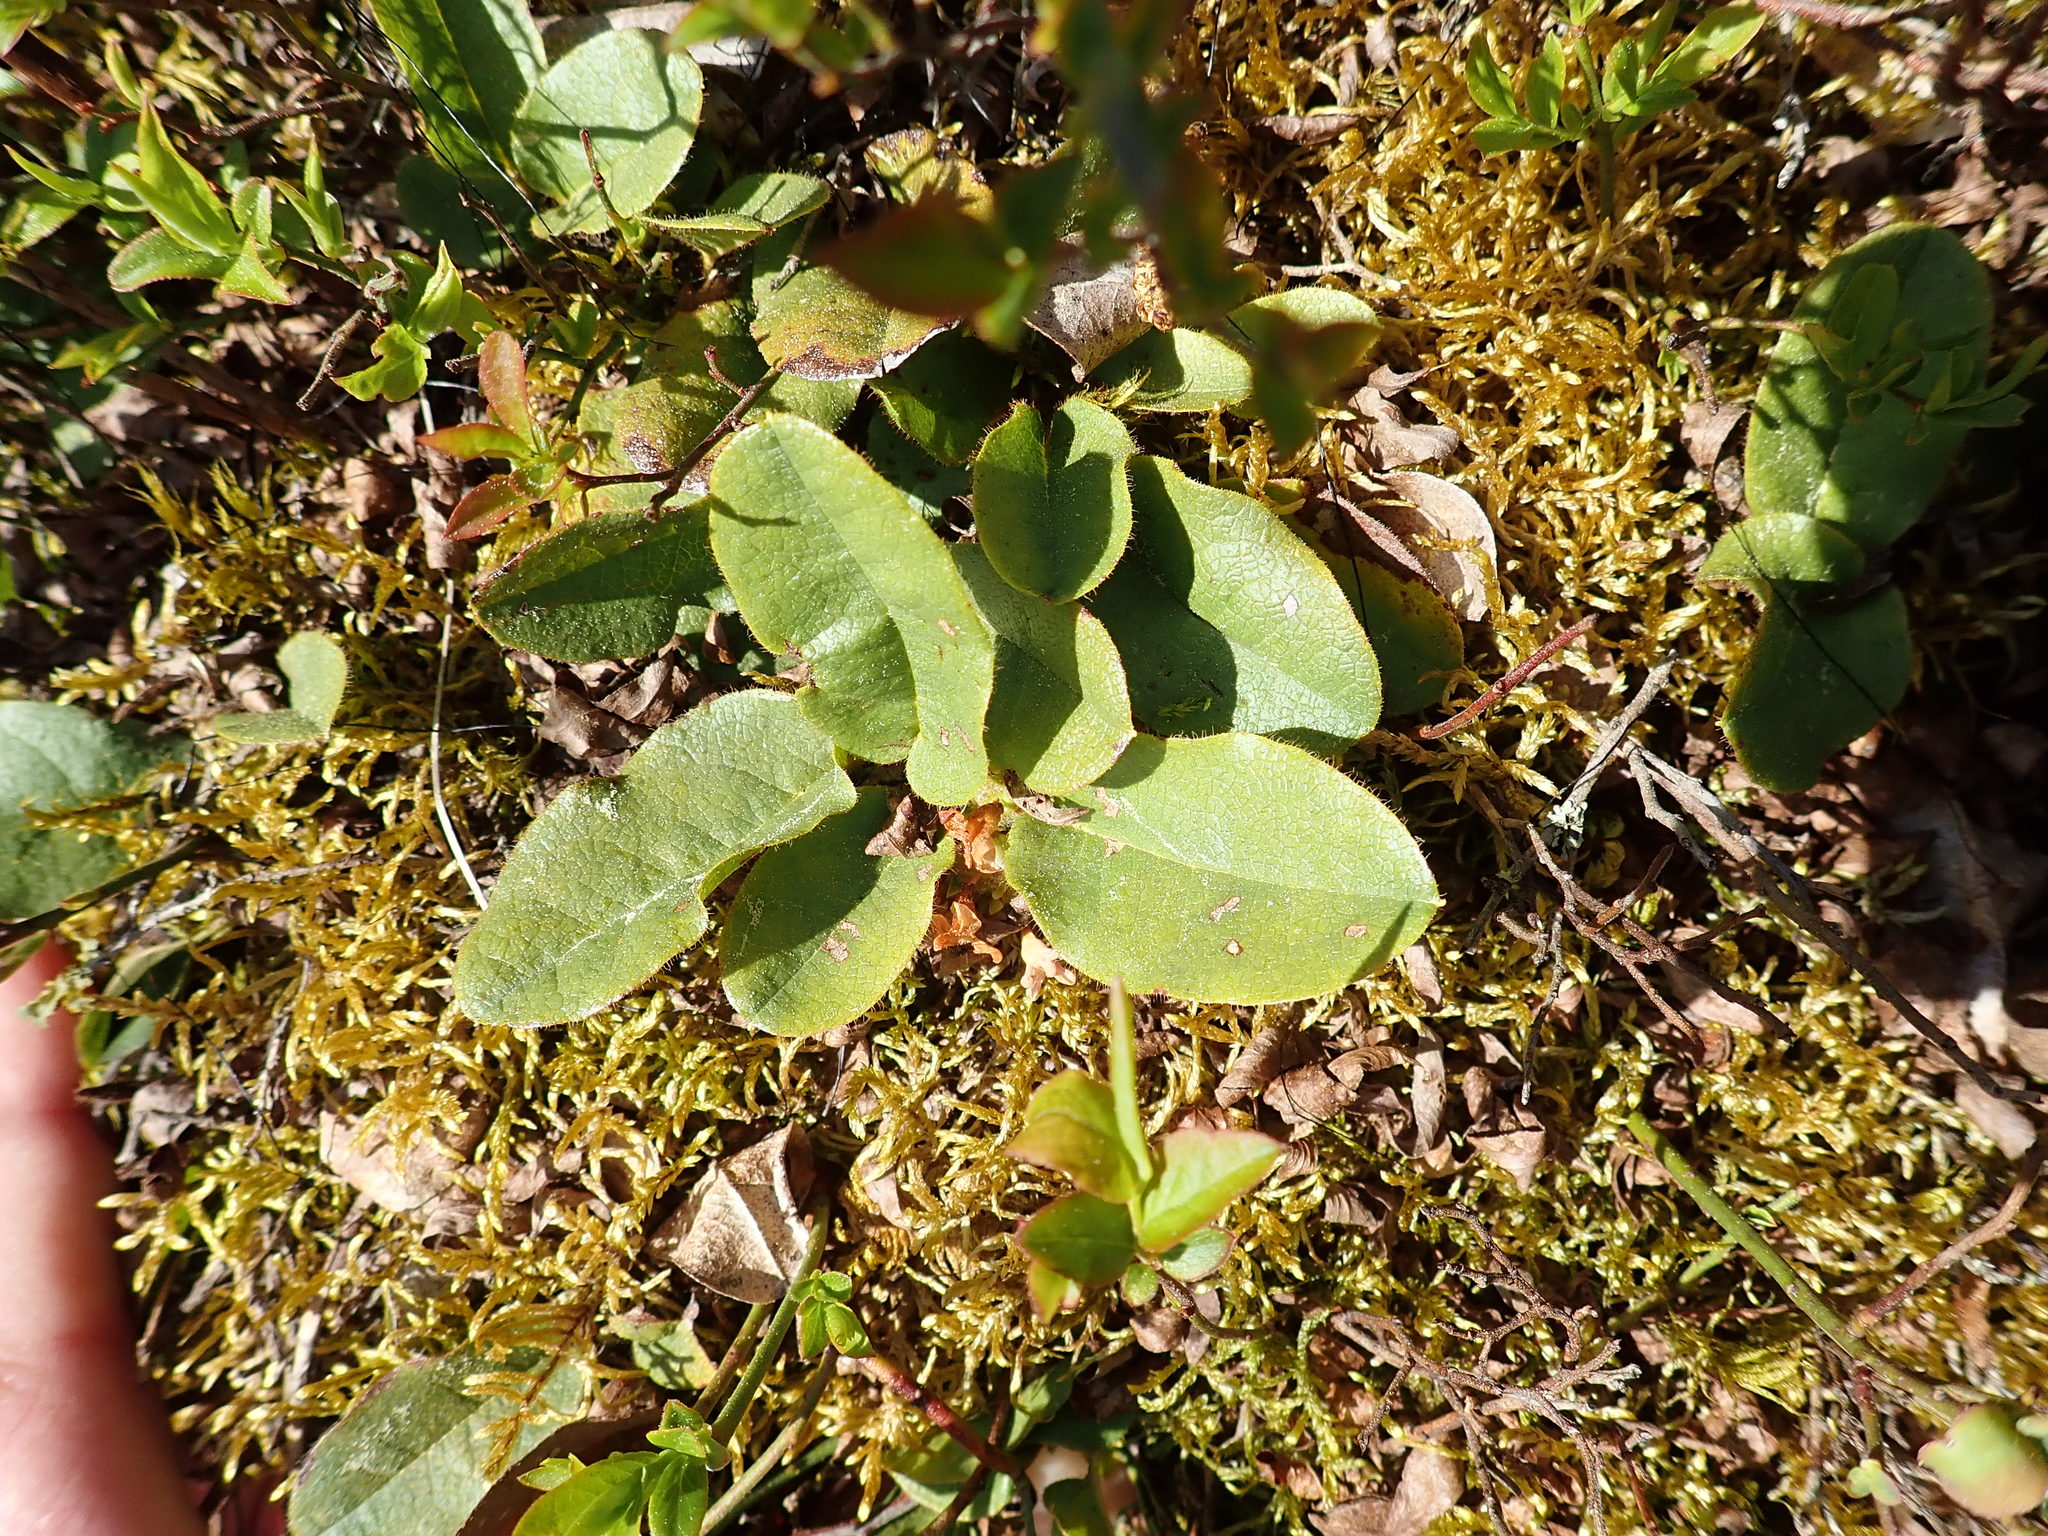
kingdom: Plantae
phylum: Tracheophyta
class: Magnoliopsida
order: Ericales
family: Ericaceae
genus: Epigaea
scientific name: Epigaea repens
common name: Gravelroot
